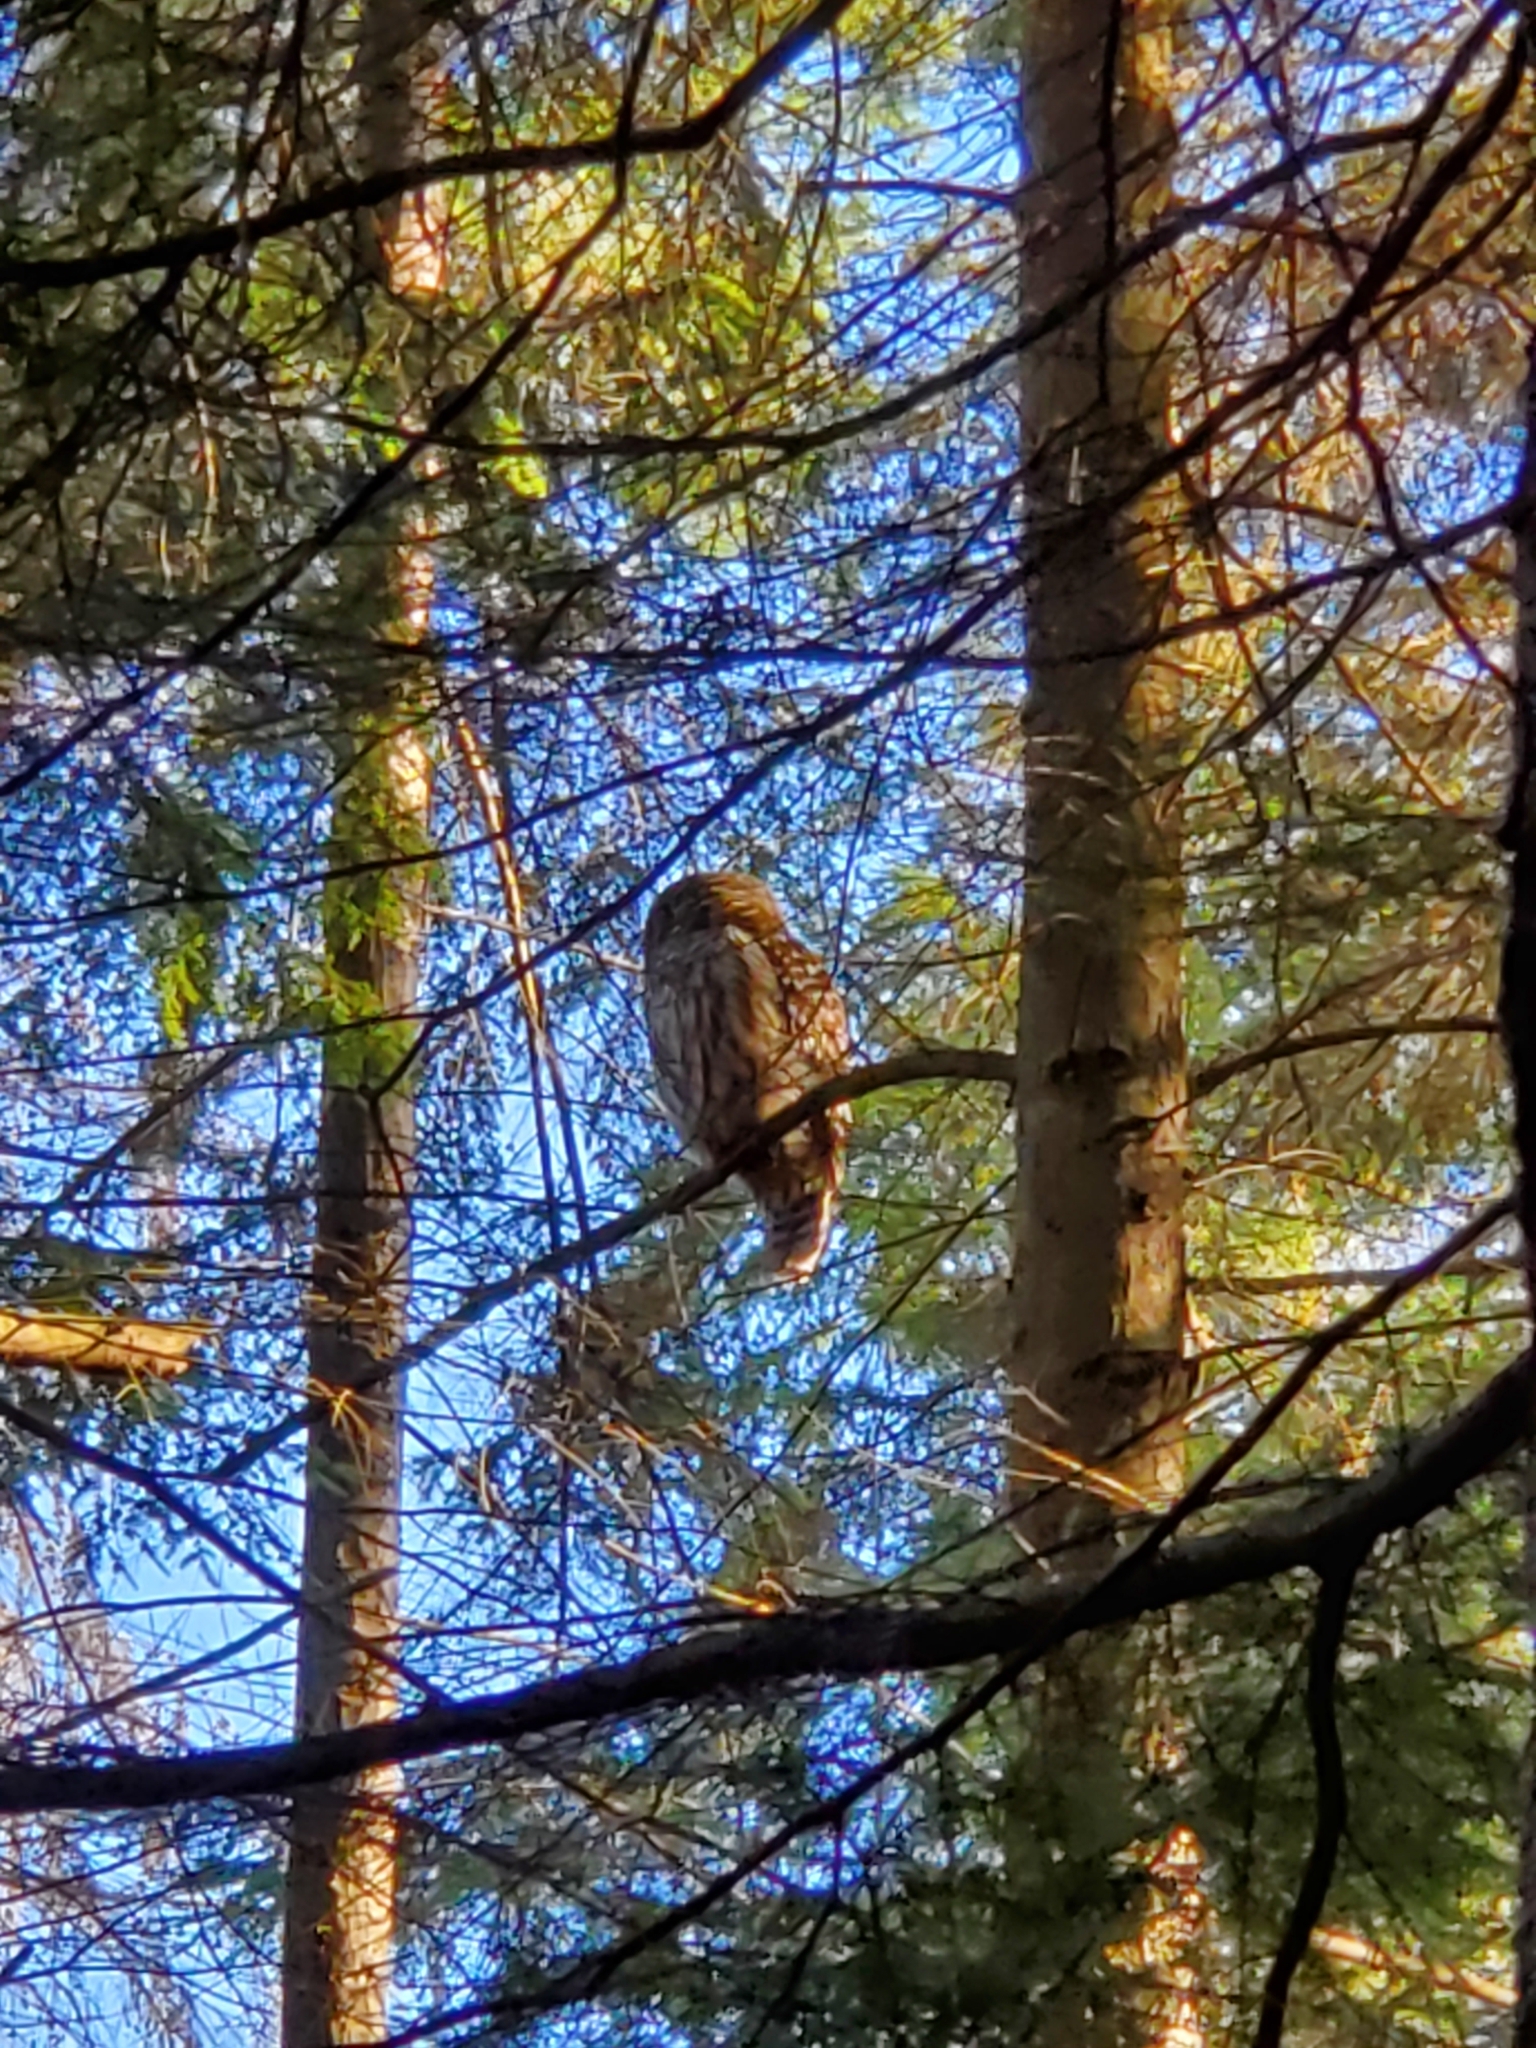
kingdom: Animalia
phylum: Chordata
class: Aves
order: Strigiformes
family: Strigidae
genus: Strix
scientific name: Strix varia
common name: Barred owl
